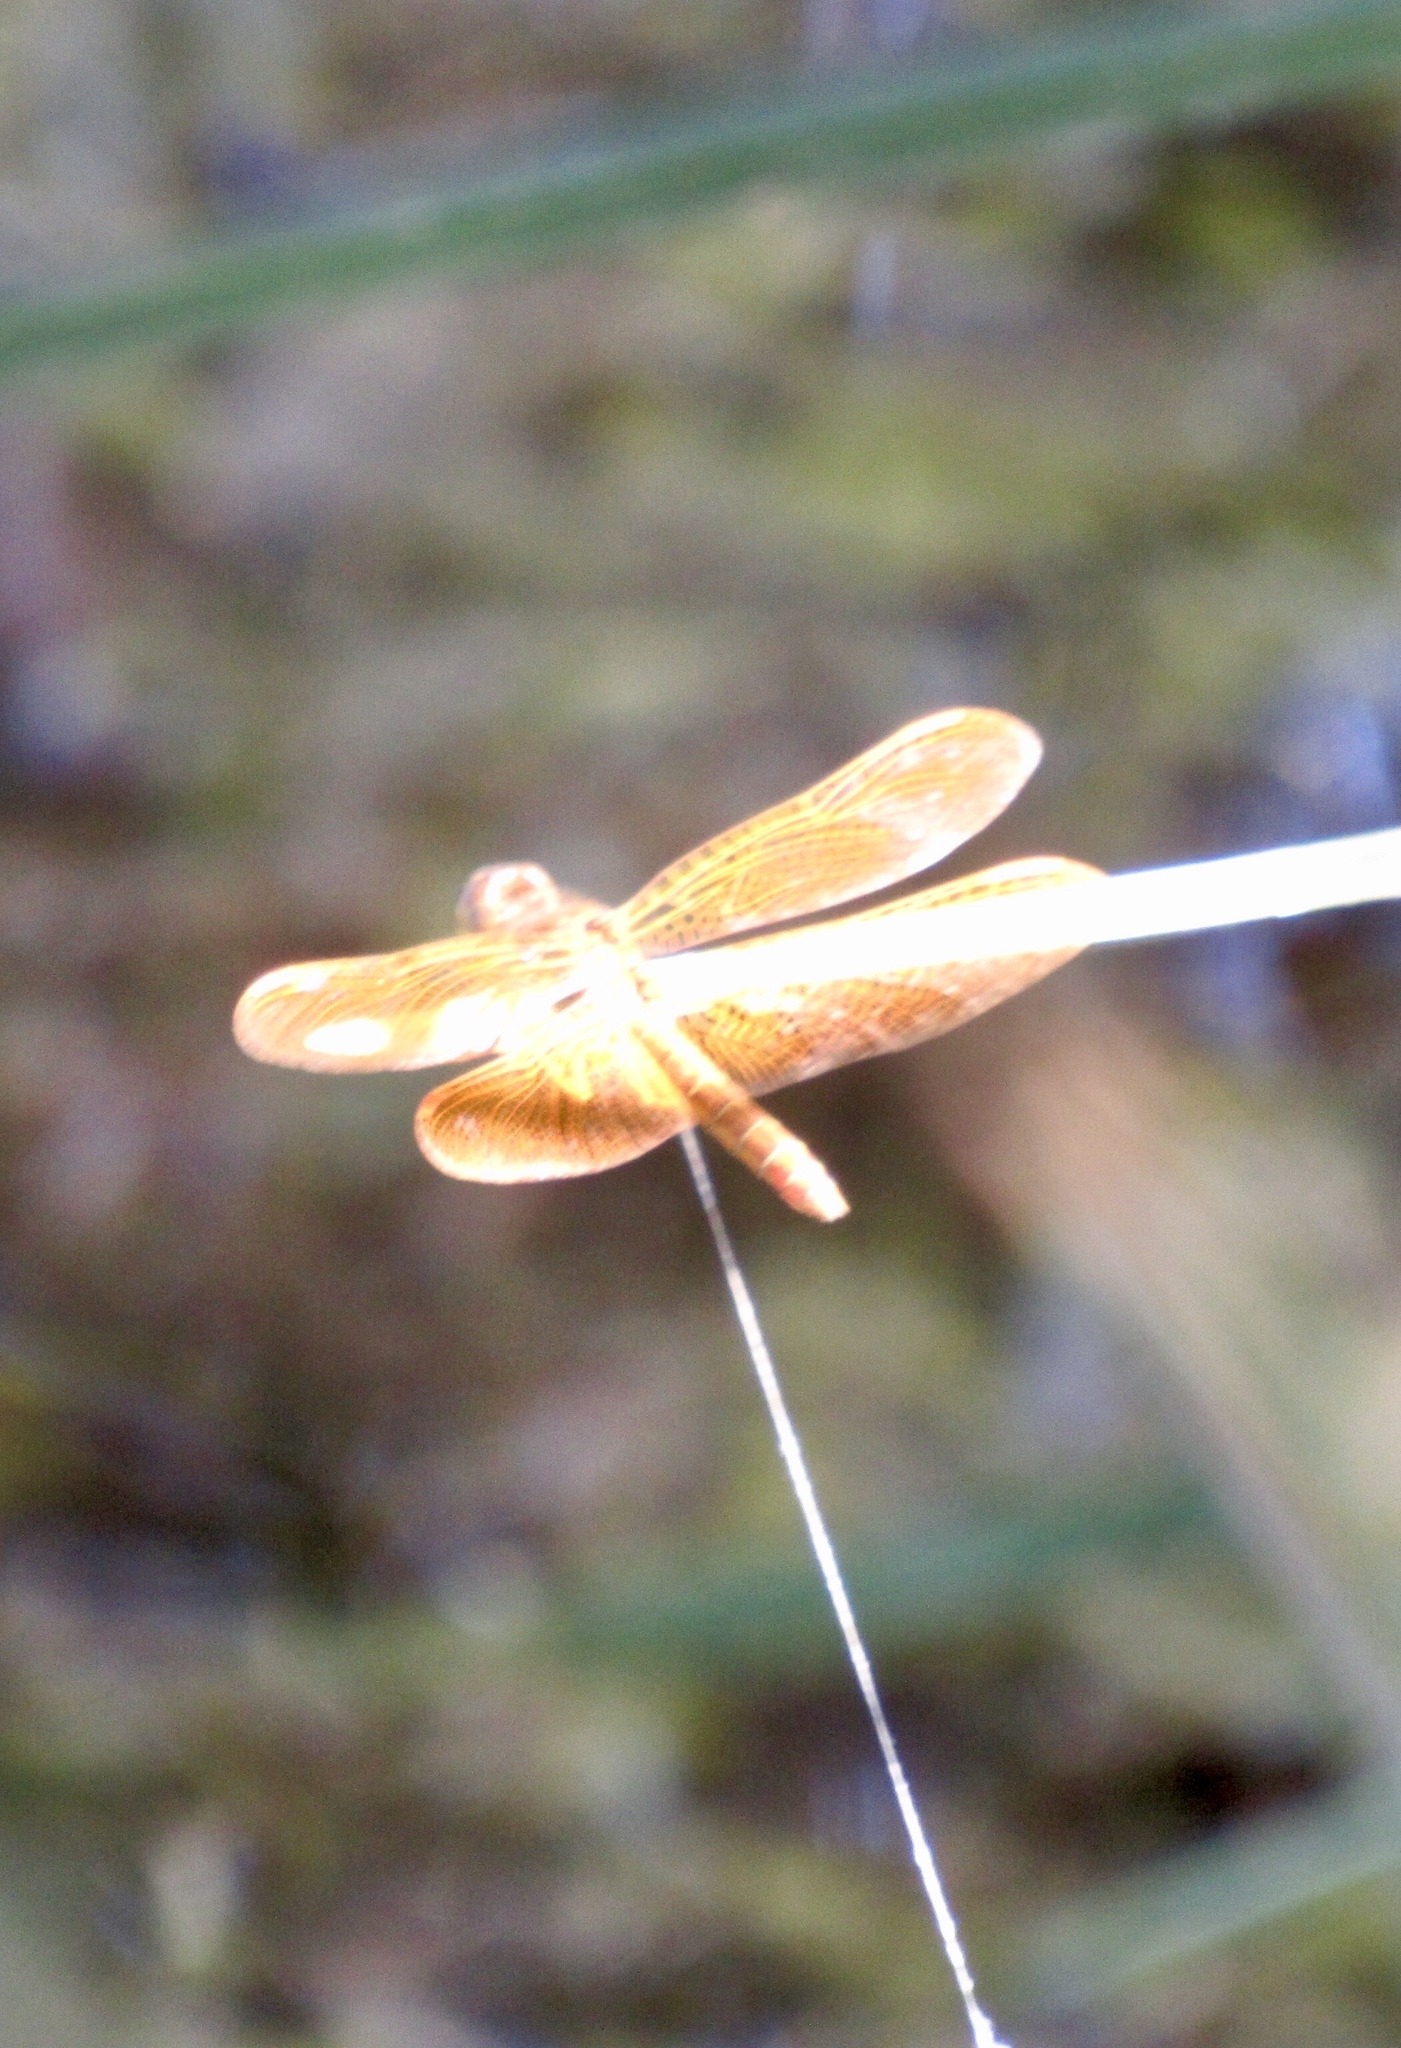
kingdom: Animalia
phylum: Arthropoda
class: Insecta
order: Odonata
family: Libellulidae
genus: Perithemis
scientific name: Perithemis intensa
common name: Mexican amberwing
